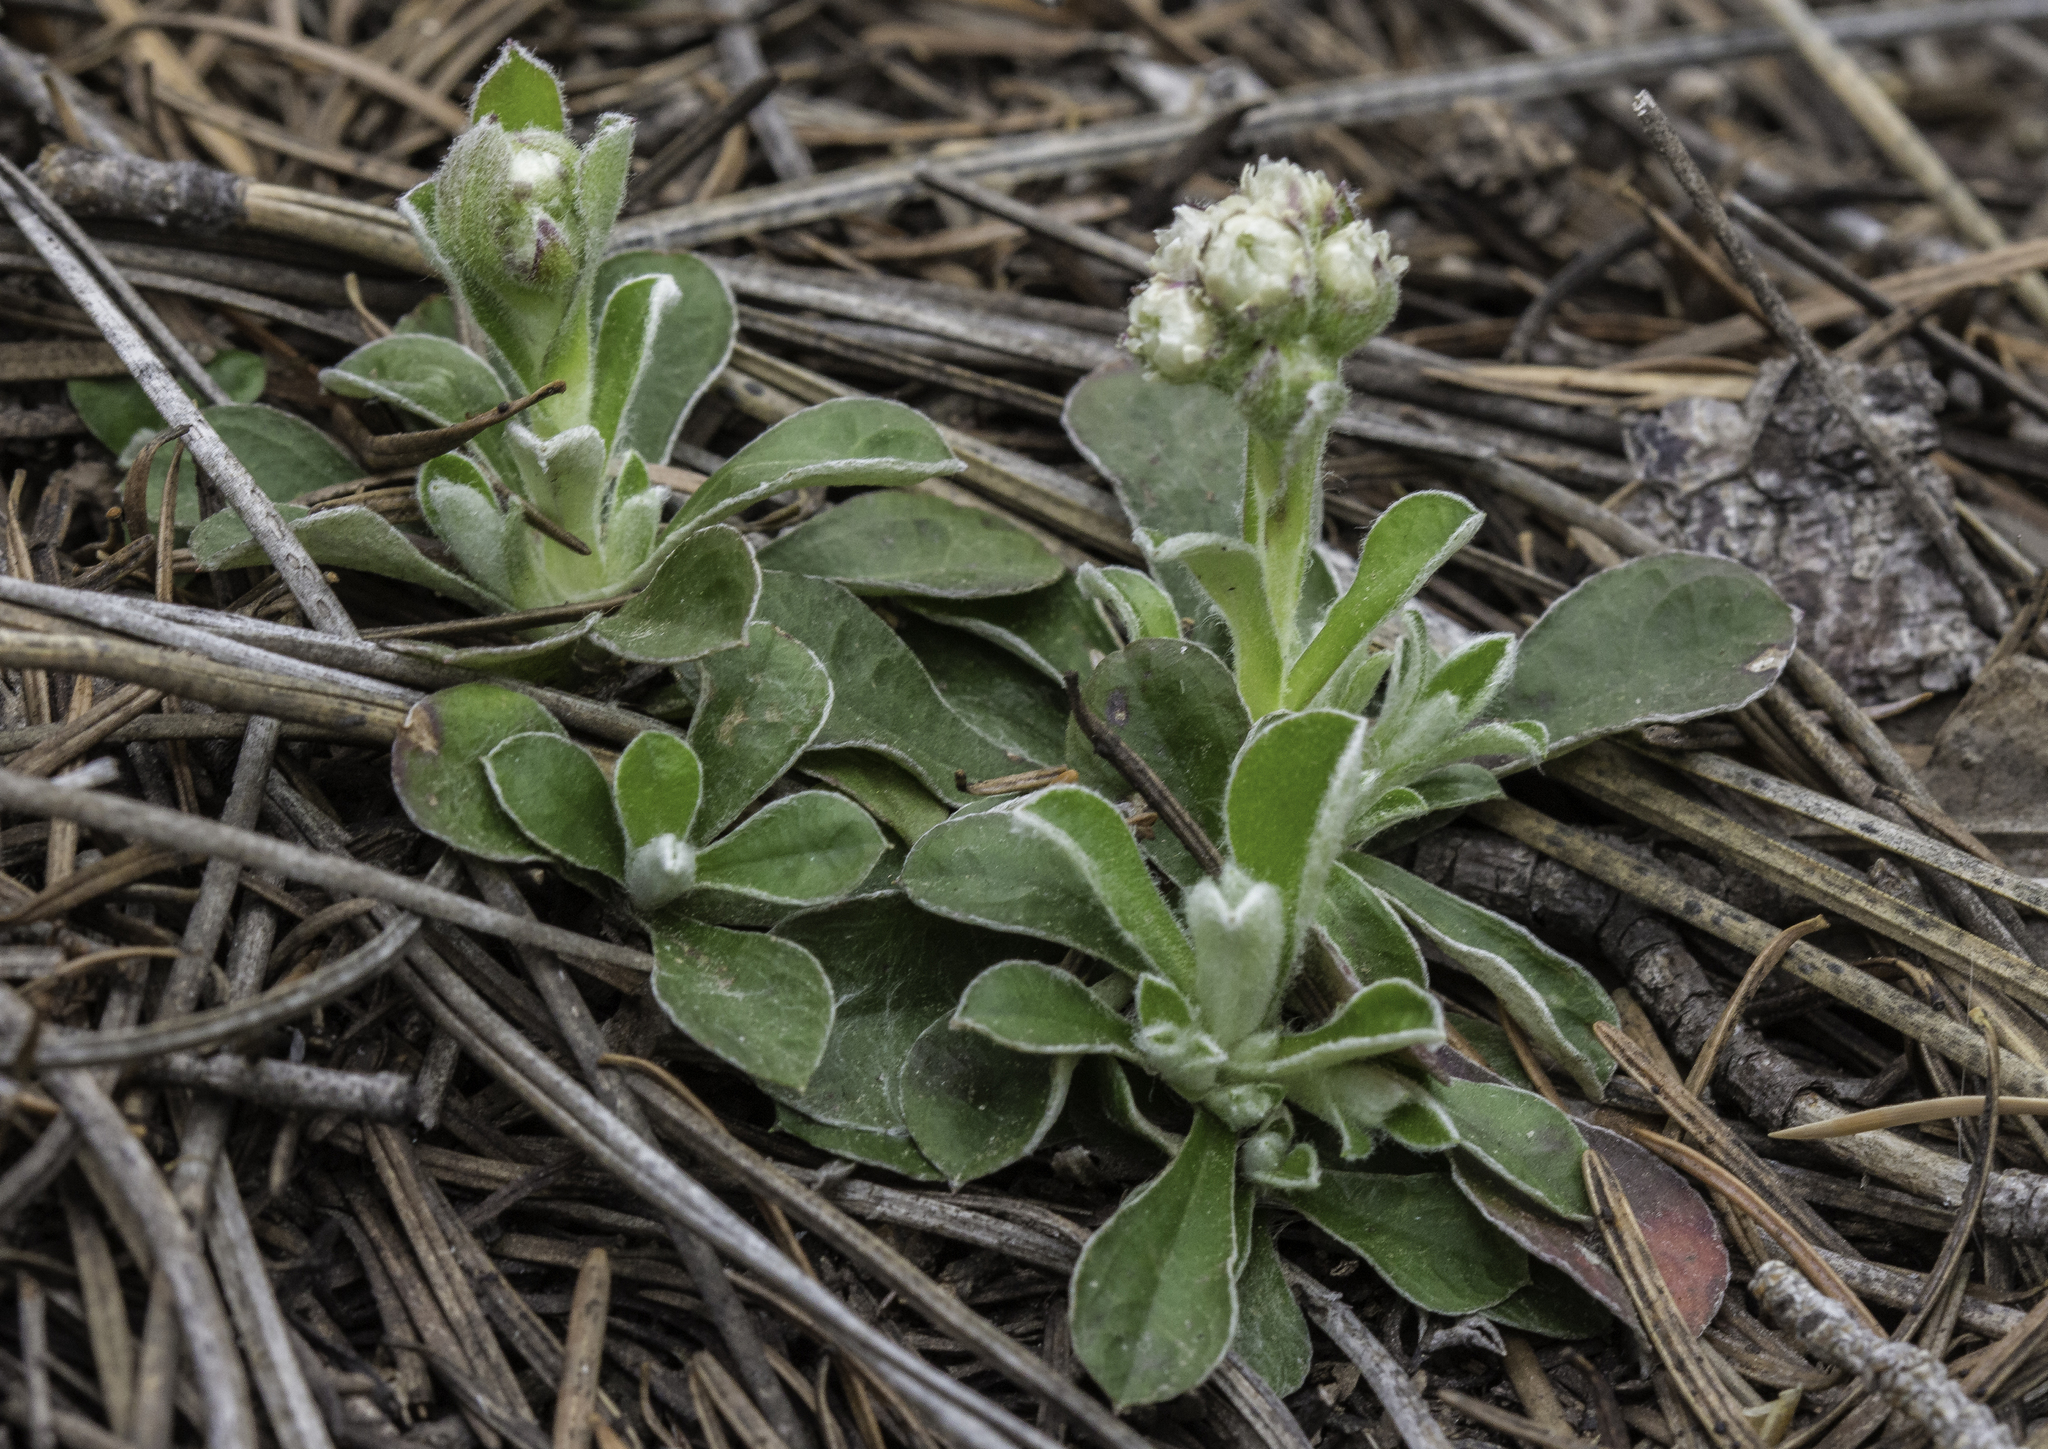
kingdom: Plantae
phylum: Tracheophyta
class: Magnoliopsida
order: Asterales
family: Asteraceae
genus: Antennaria
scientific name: Antennaria marginata
